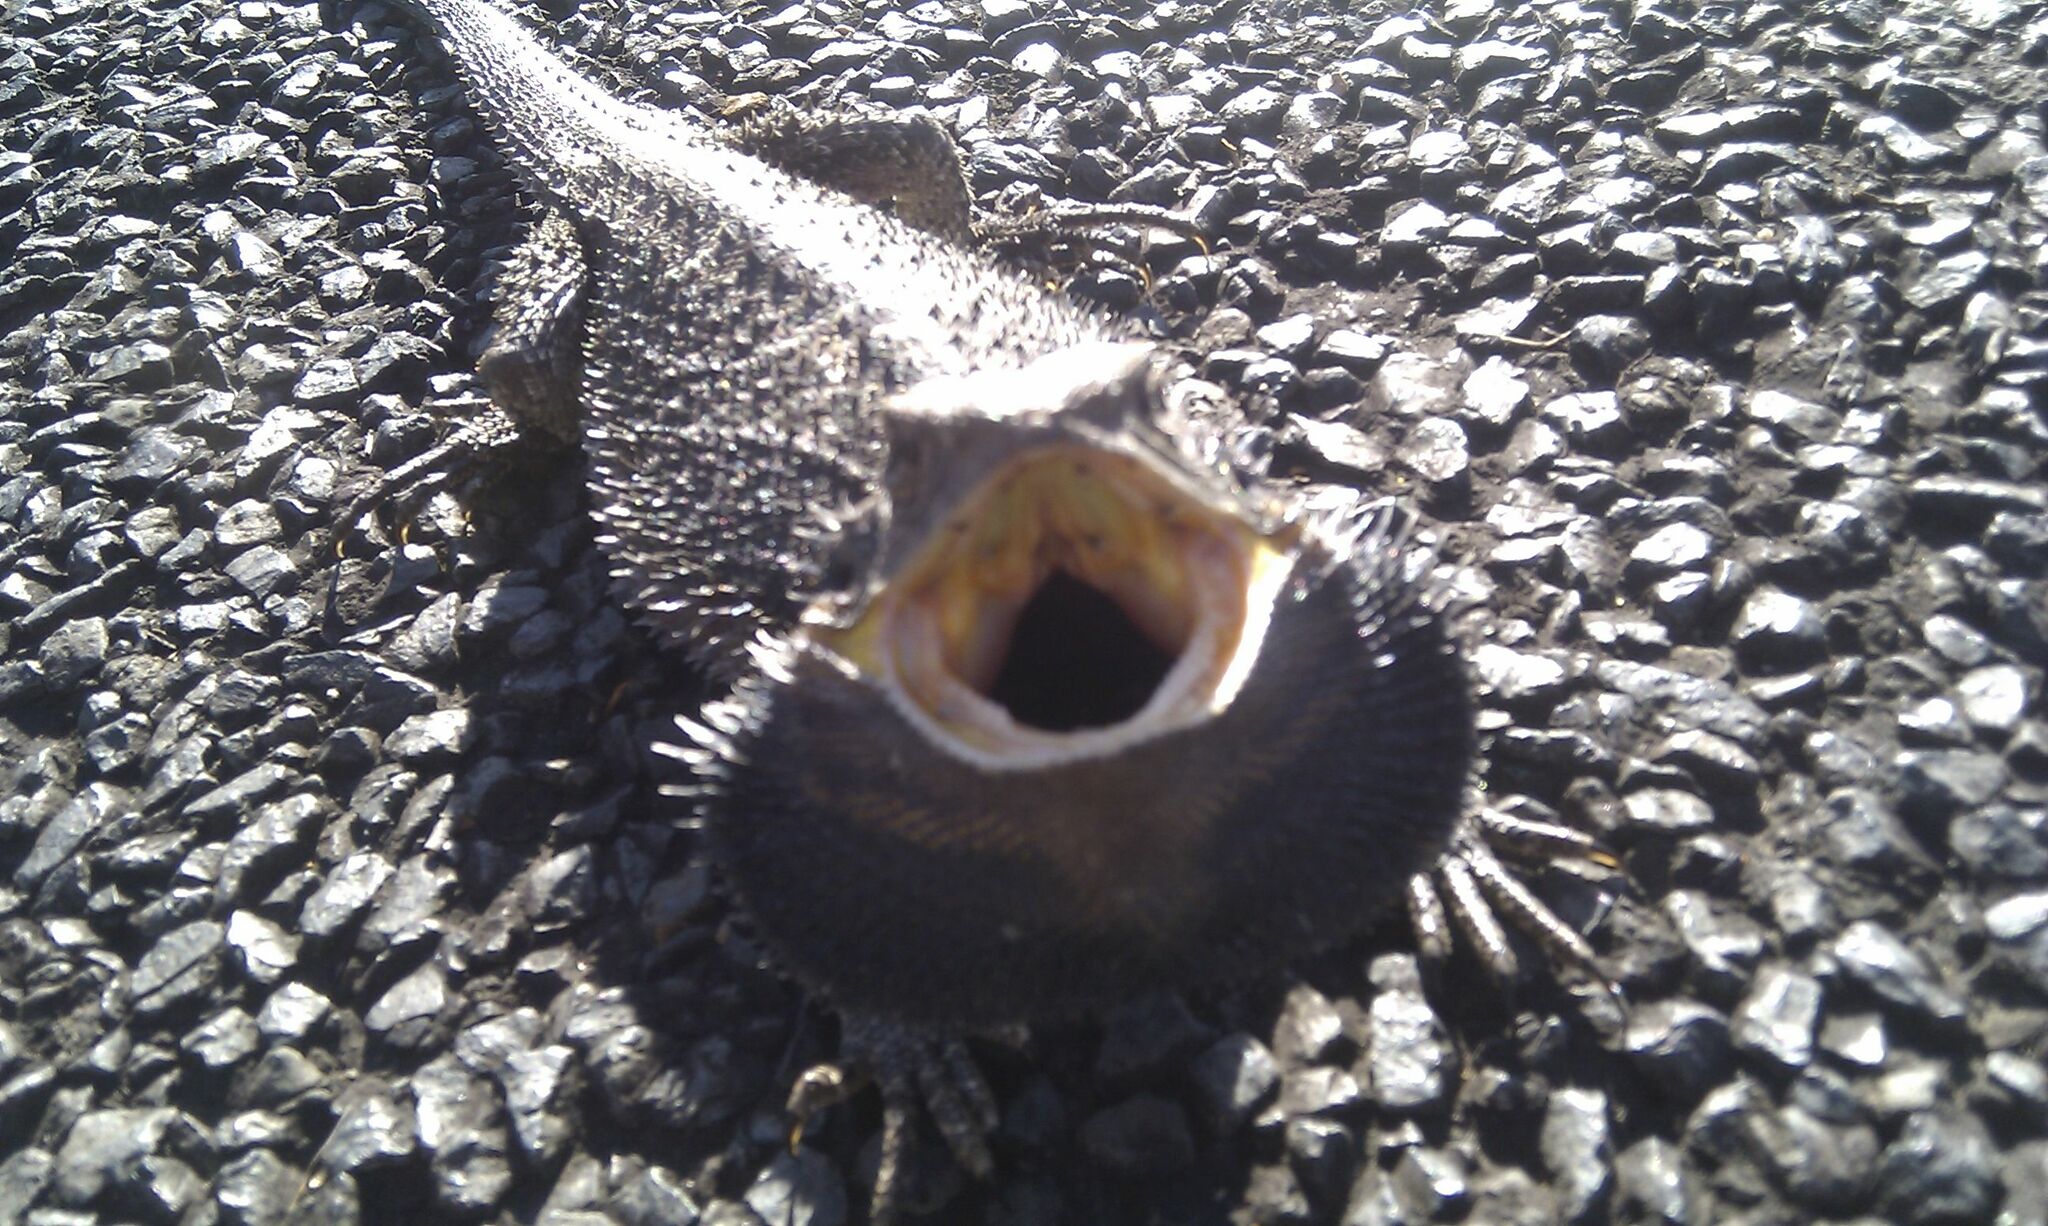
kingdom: Animalia
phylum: Chordata
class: Squamata
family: Agamidae
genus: Pogona
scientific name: Pogona barbata
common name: Bearded dragon
